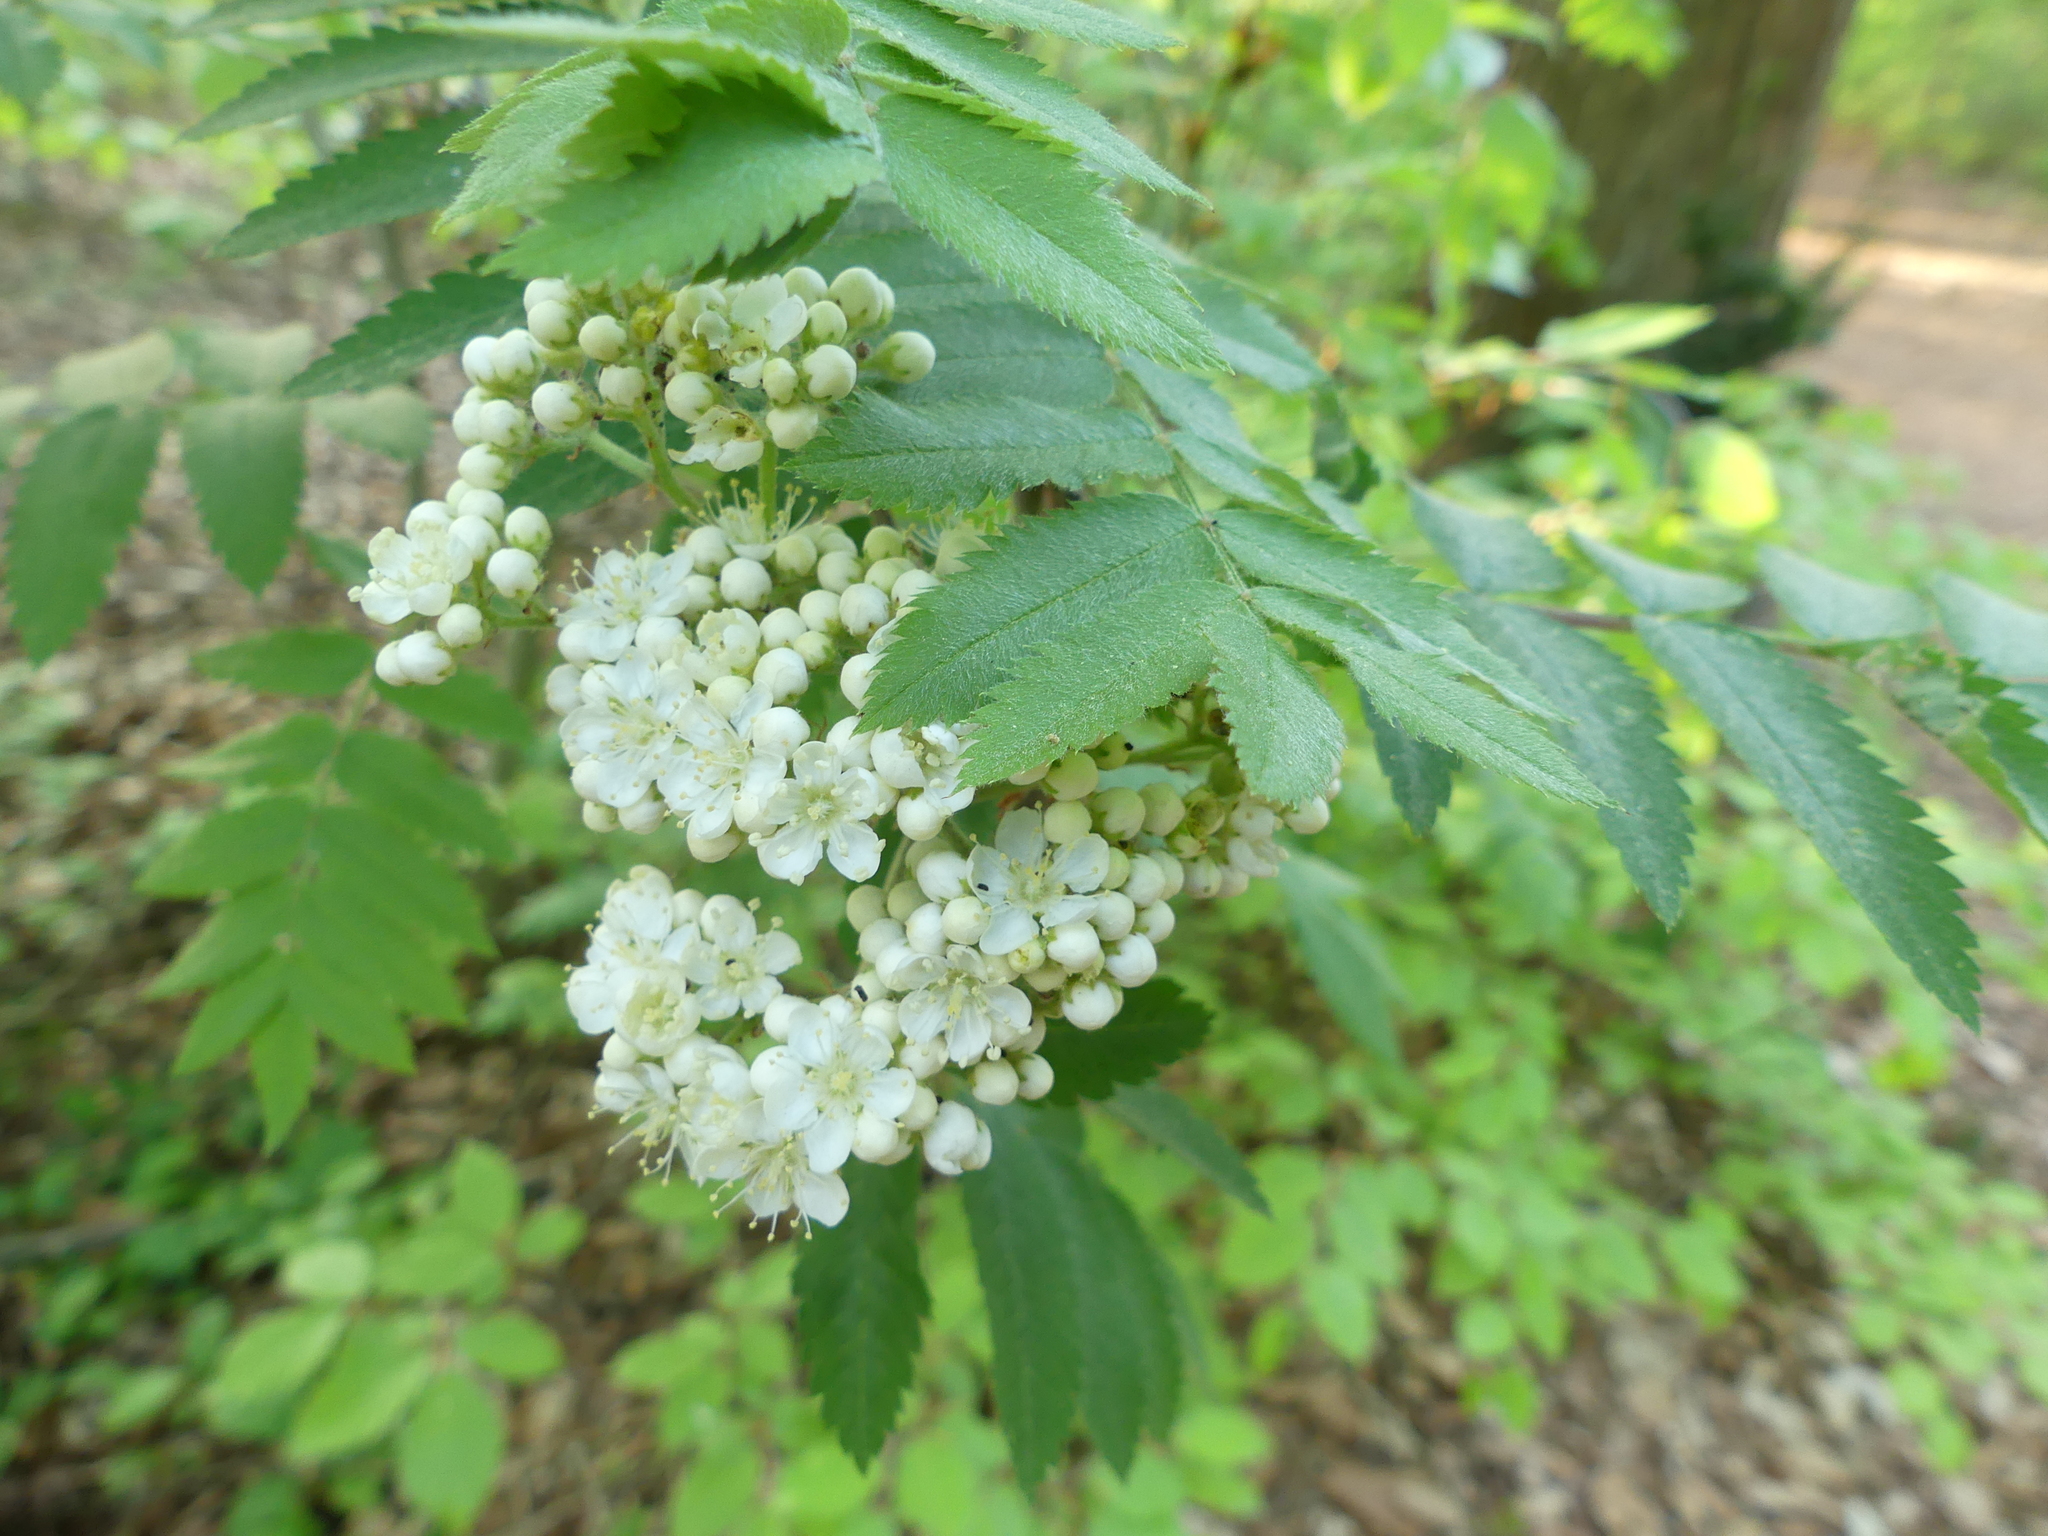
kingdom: Plantae
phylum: Tracheophyta
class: Magnoliopsida
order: Rosales
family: Rosaceae
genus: Sorbus
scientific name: Sorbus aucuparia
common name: Rowan
